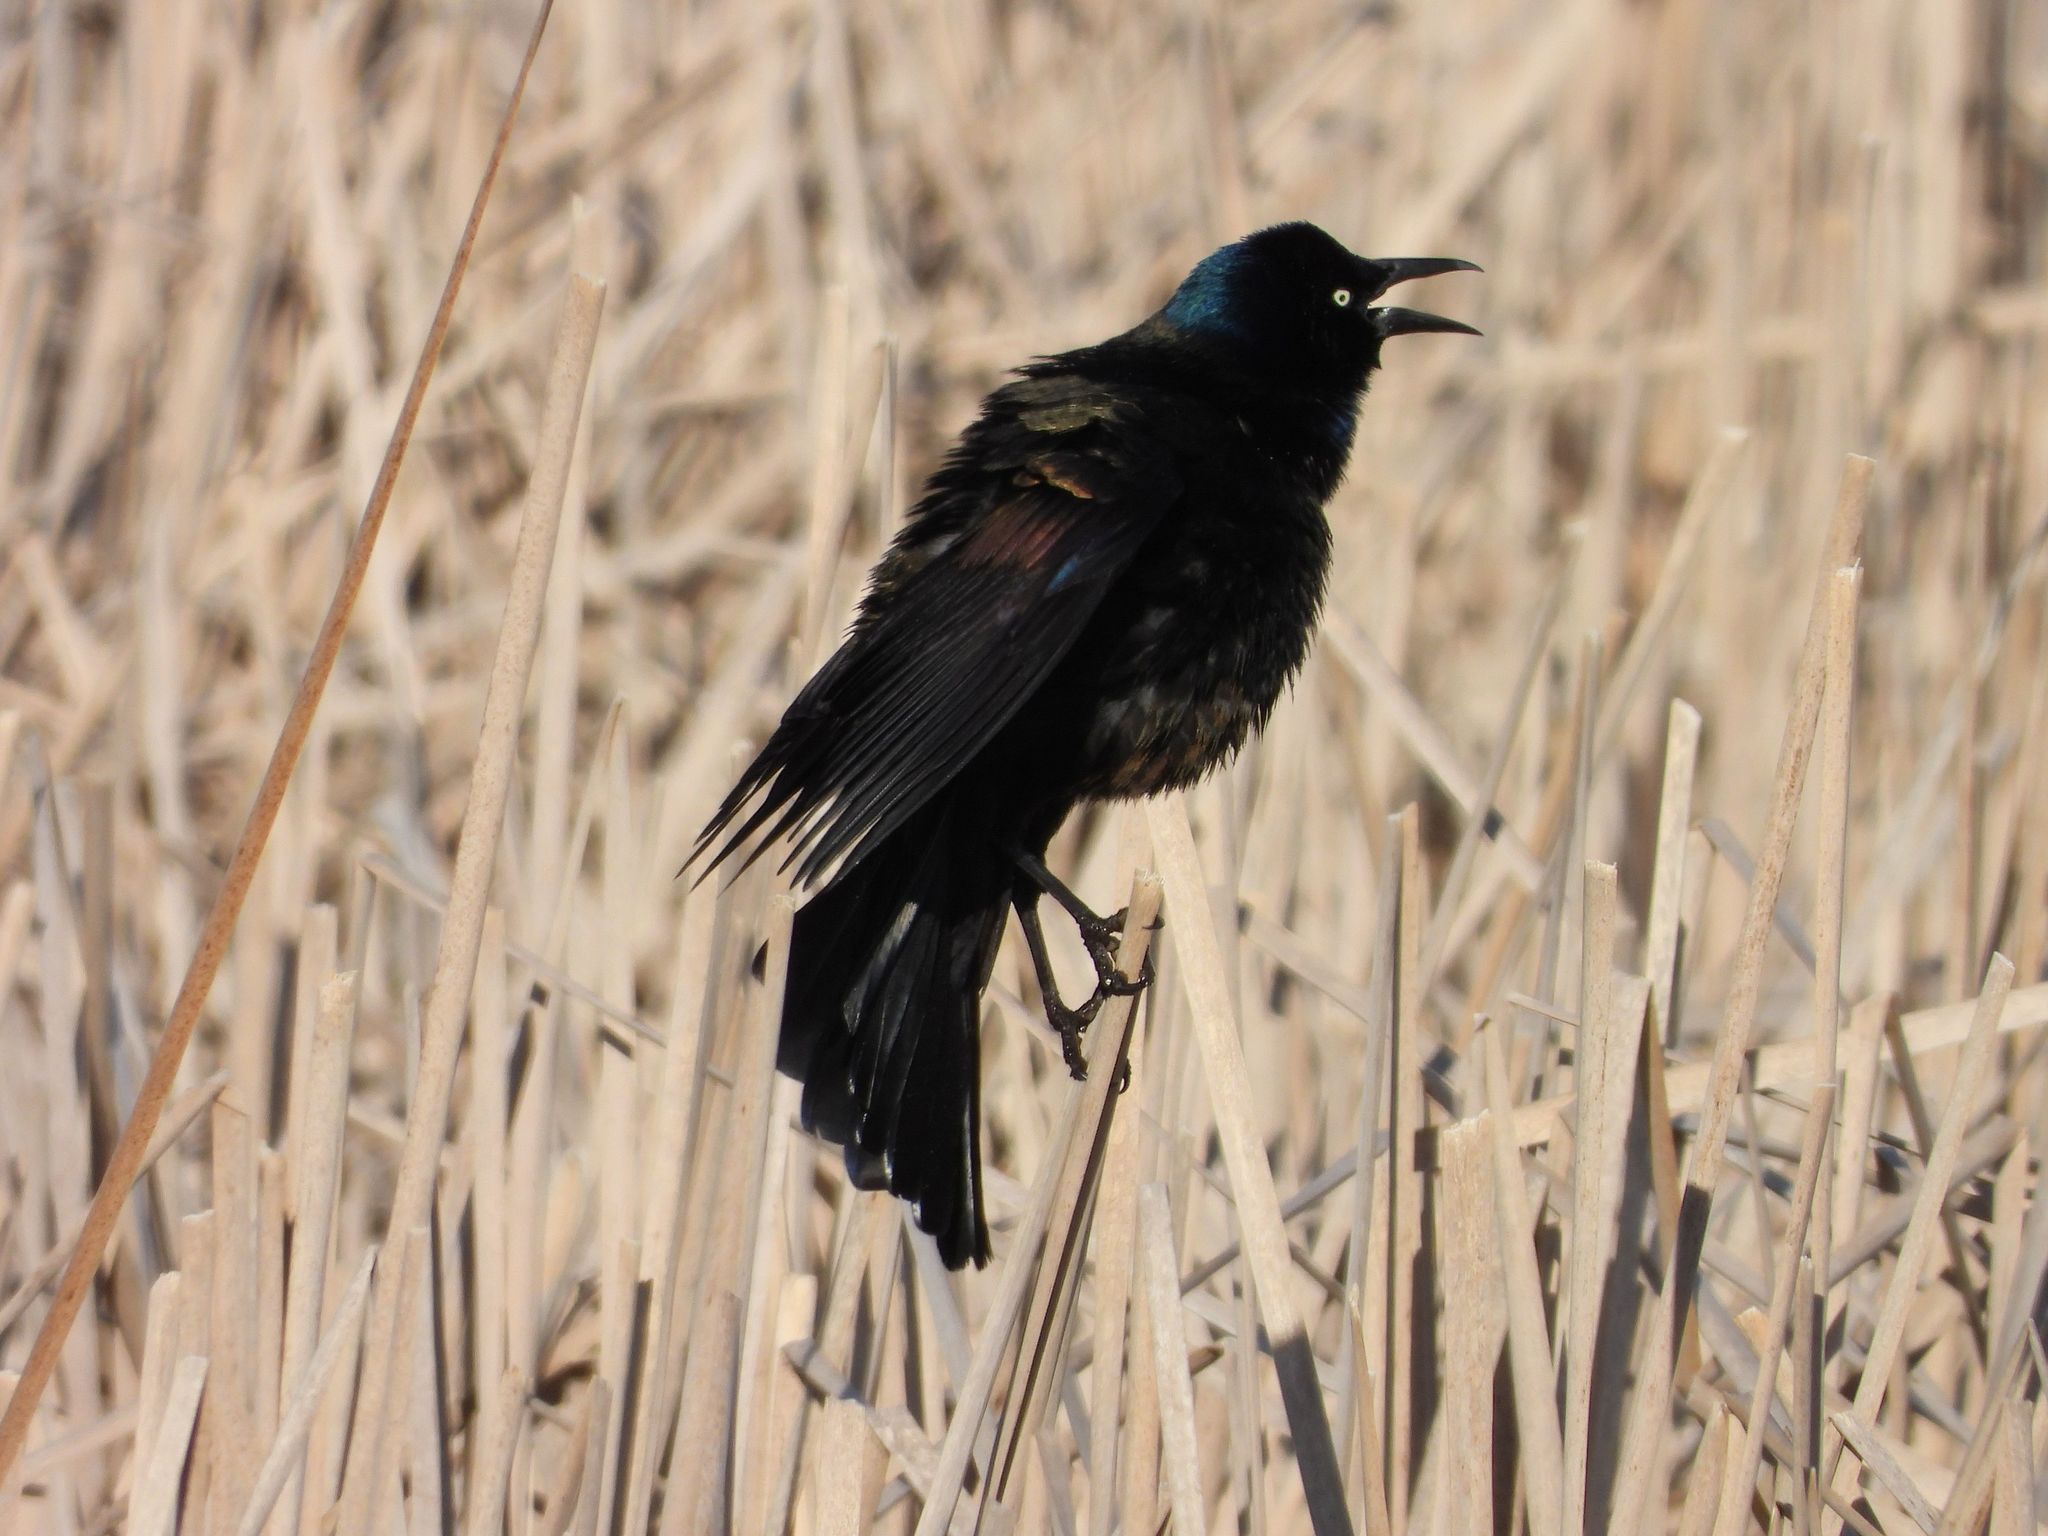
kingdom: Animalia
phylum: Chordata
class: Aves
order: Passeriformes
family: Icteridae
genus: Quiscalus
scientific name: Quiscalus quiscula
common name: Common grackle
